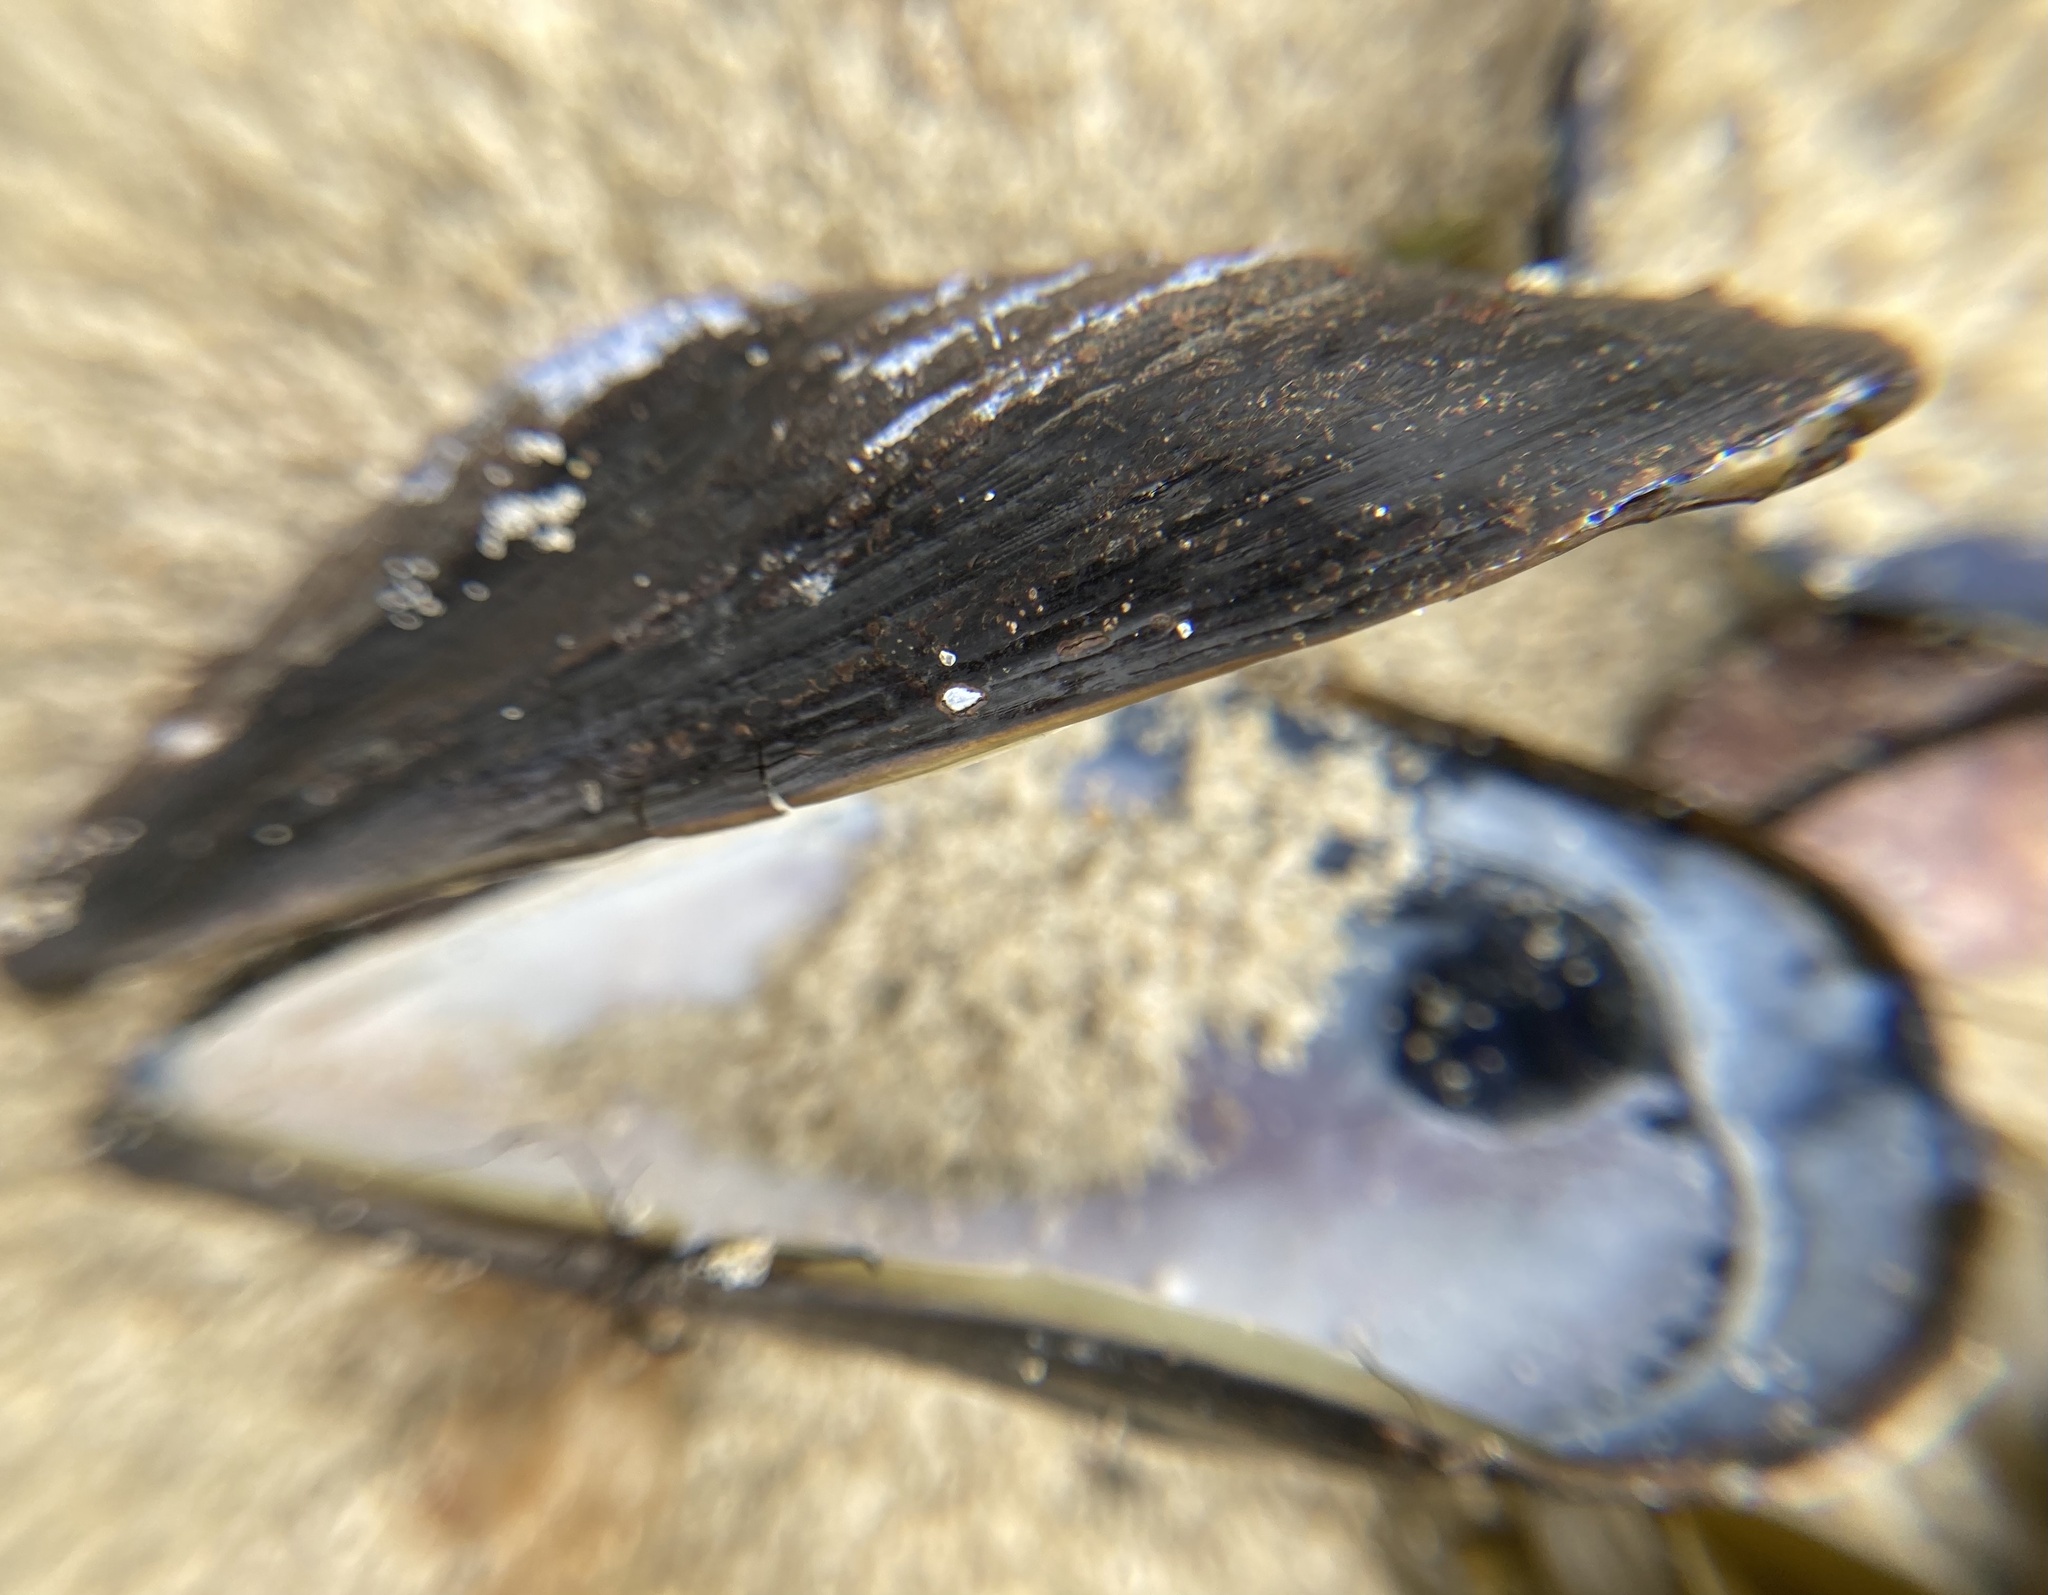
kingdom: Animalia
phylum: Mollusca
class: Bivalvia
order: Mytilida
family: Mytilidae
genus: Mytilus
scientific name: Mytilus edulis
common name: Blue mussel
